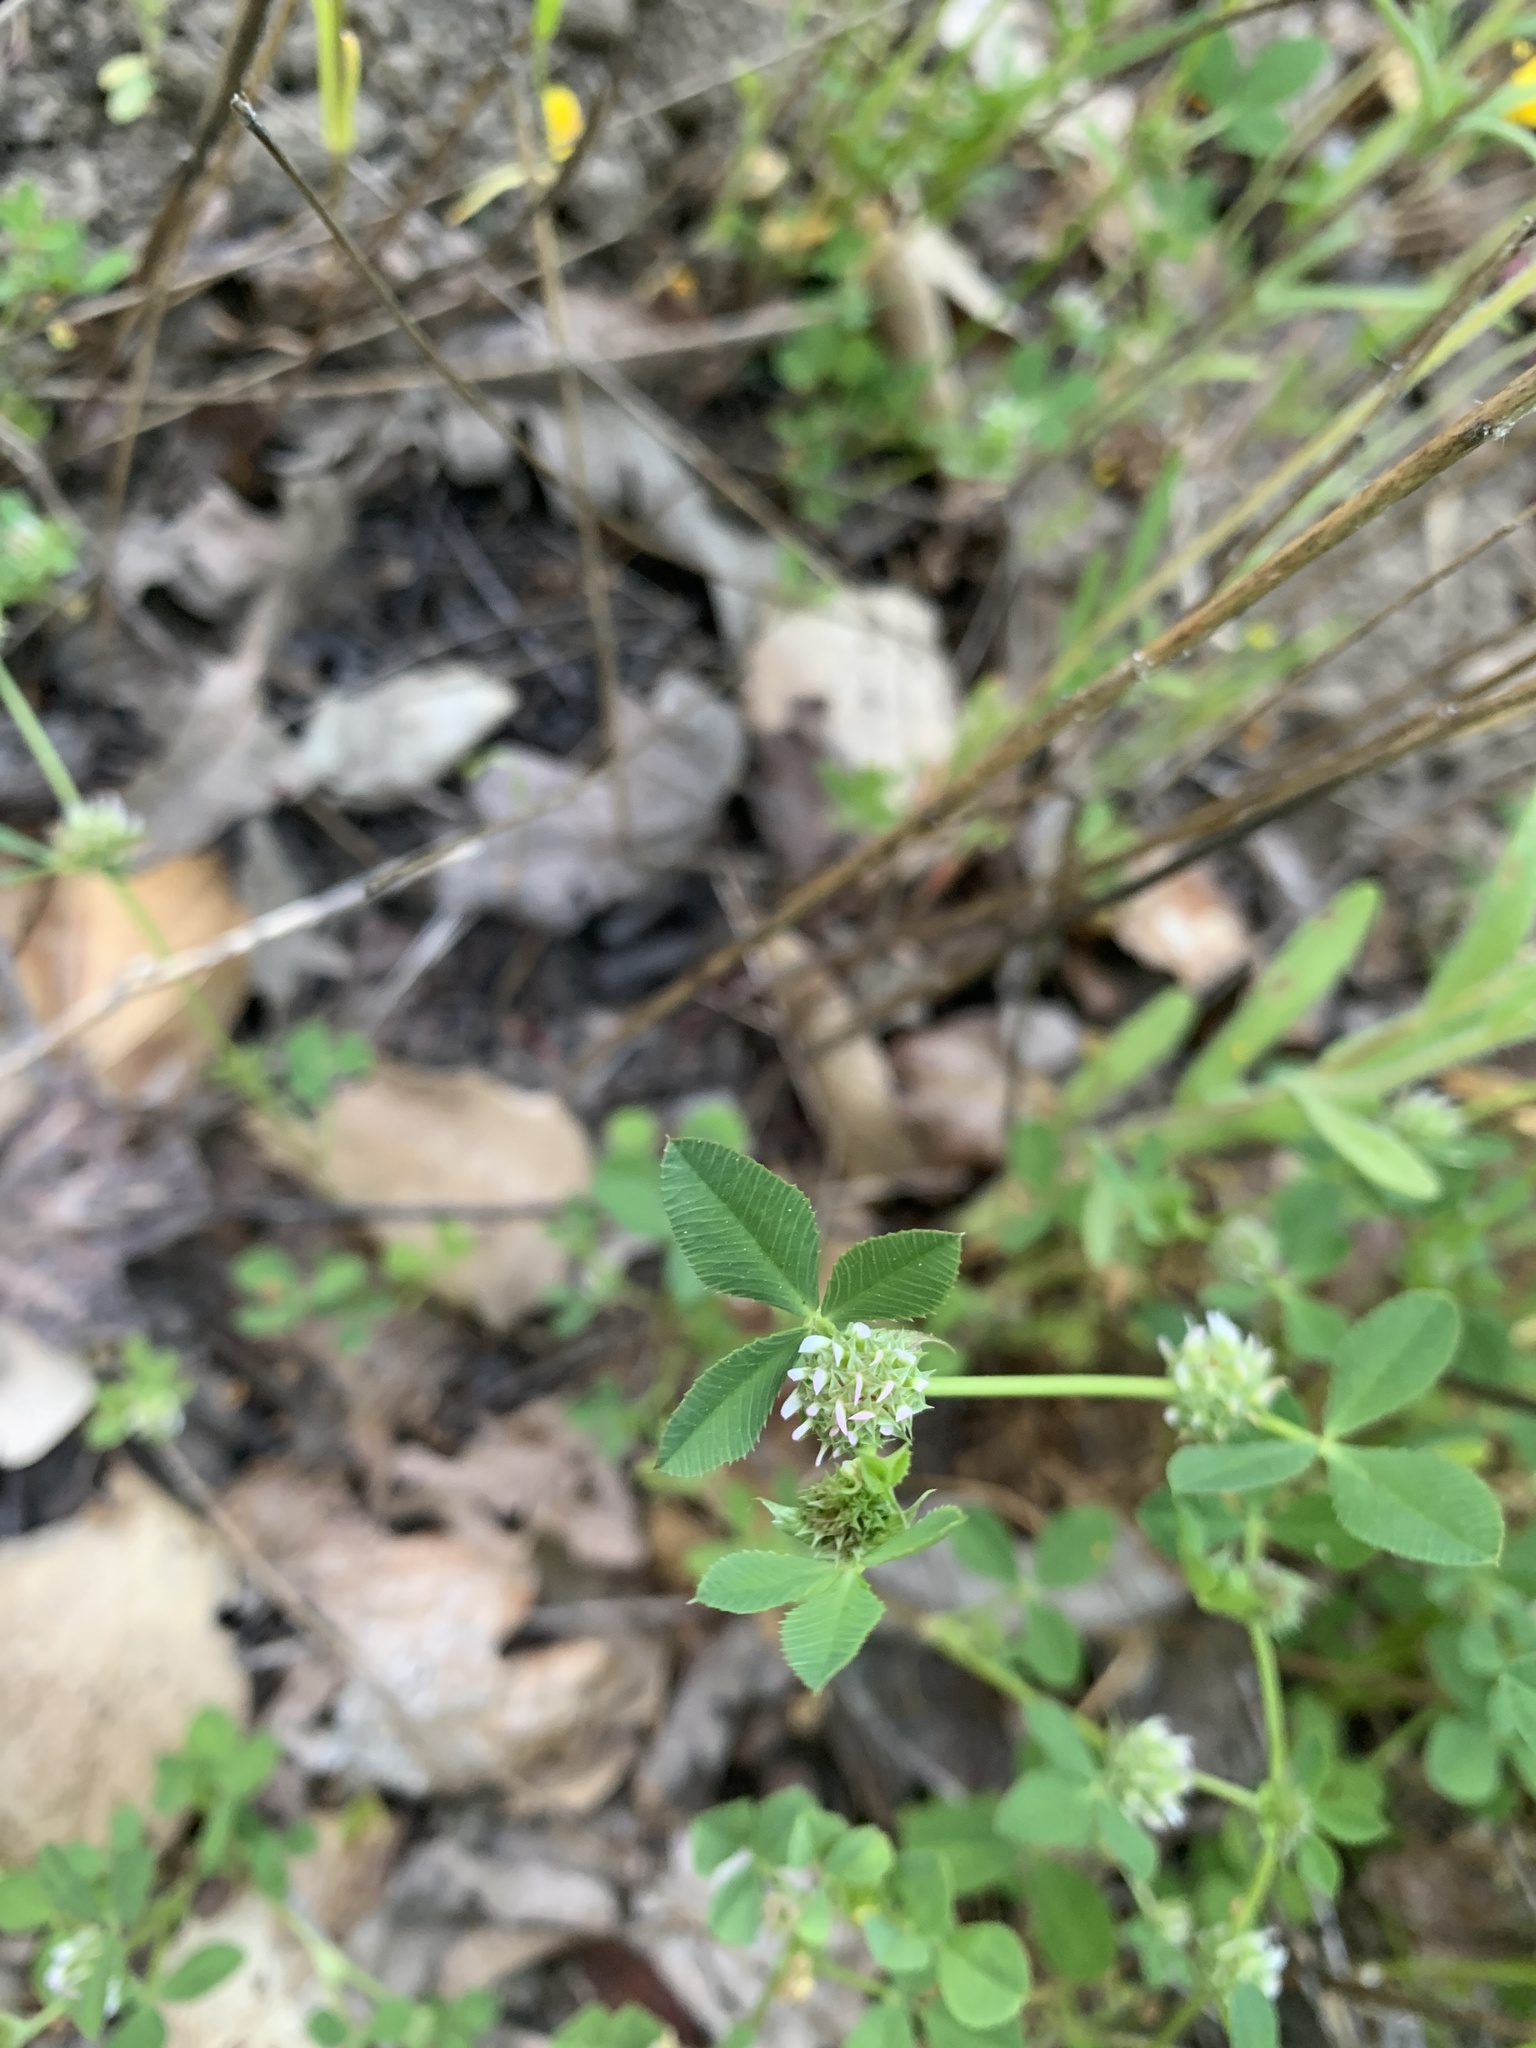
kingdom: Plantae
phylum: Tracheophyta
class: Magnoliopsida
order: Fabales
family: Fabaceae
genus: Trifolium
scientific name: Trifolium glomeratum
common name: Clustered clover
